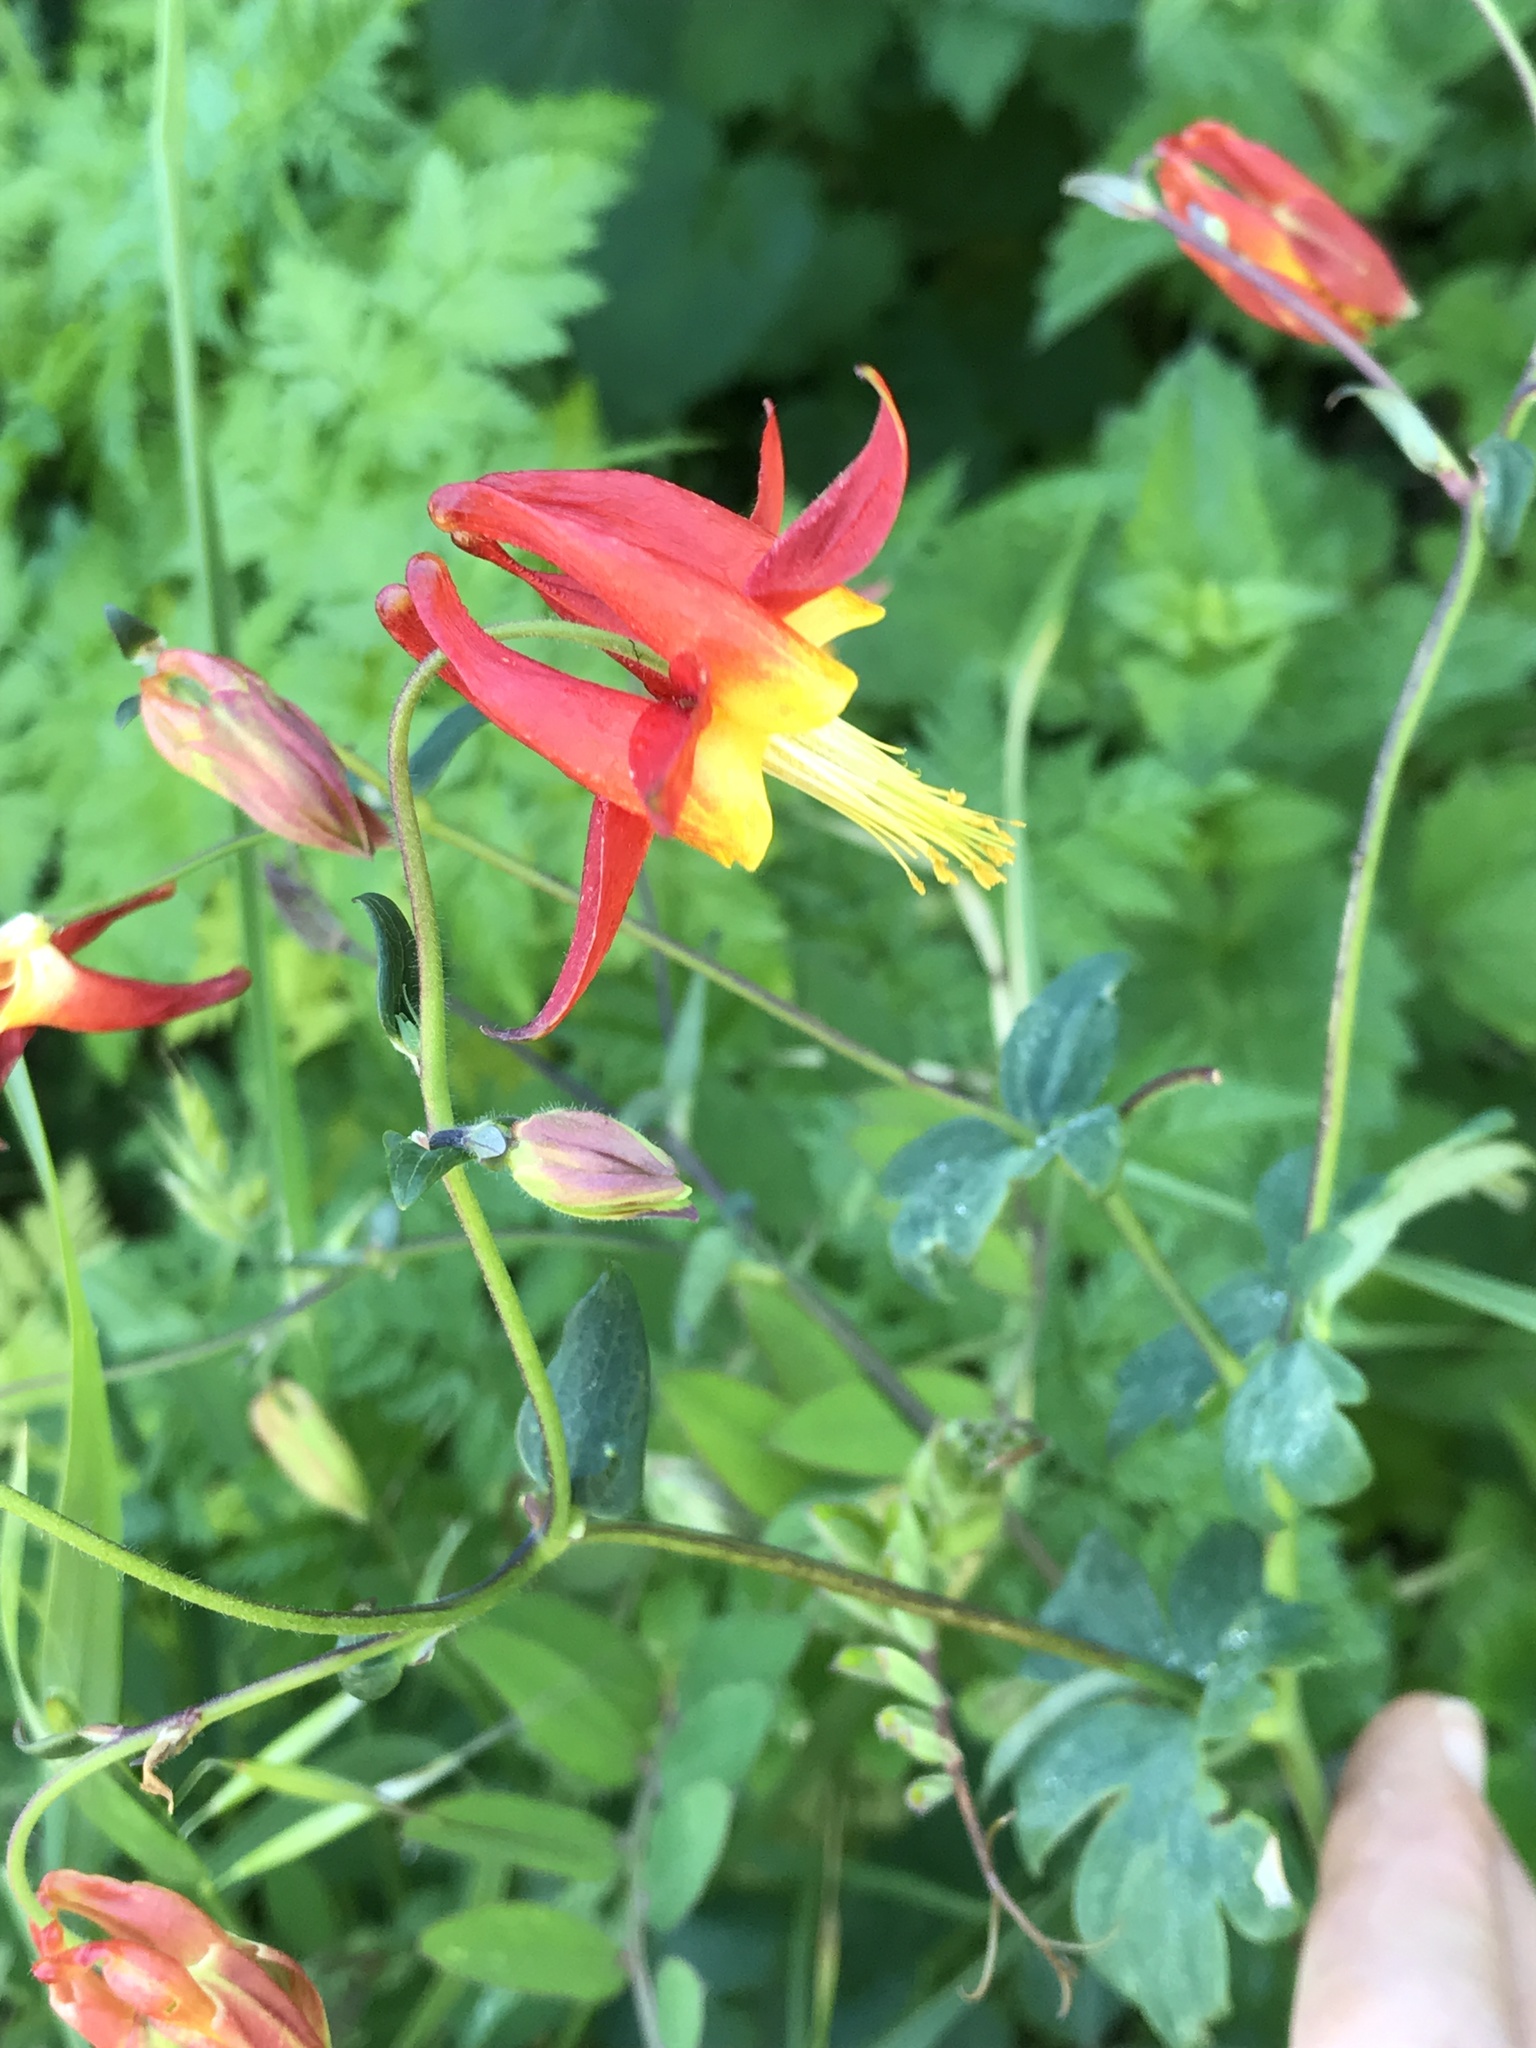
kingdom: Plantae
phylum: Tracheophyta
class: Magnoliopsida
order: Ranunculales
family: Ranunculaceae
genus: Aquilegia
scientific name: Aquilegia formosa
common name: Sitka columbine
